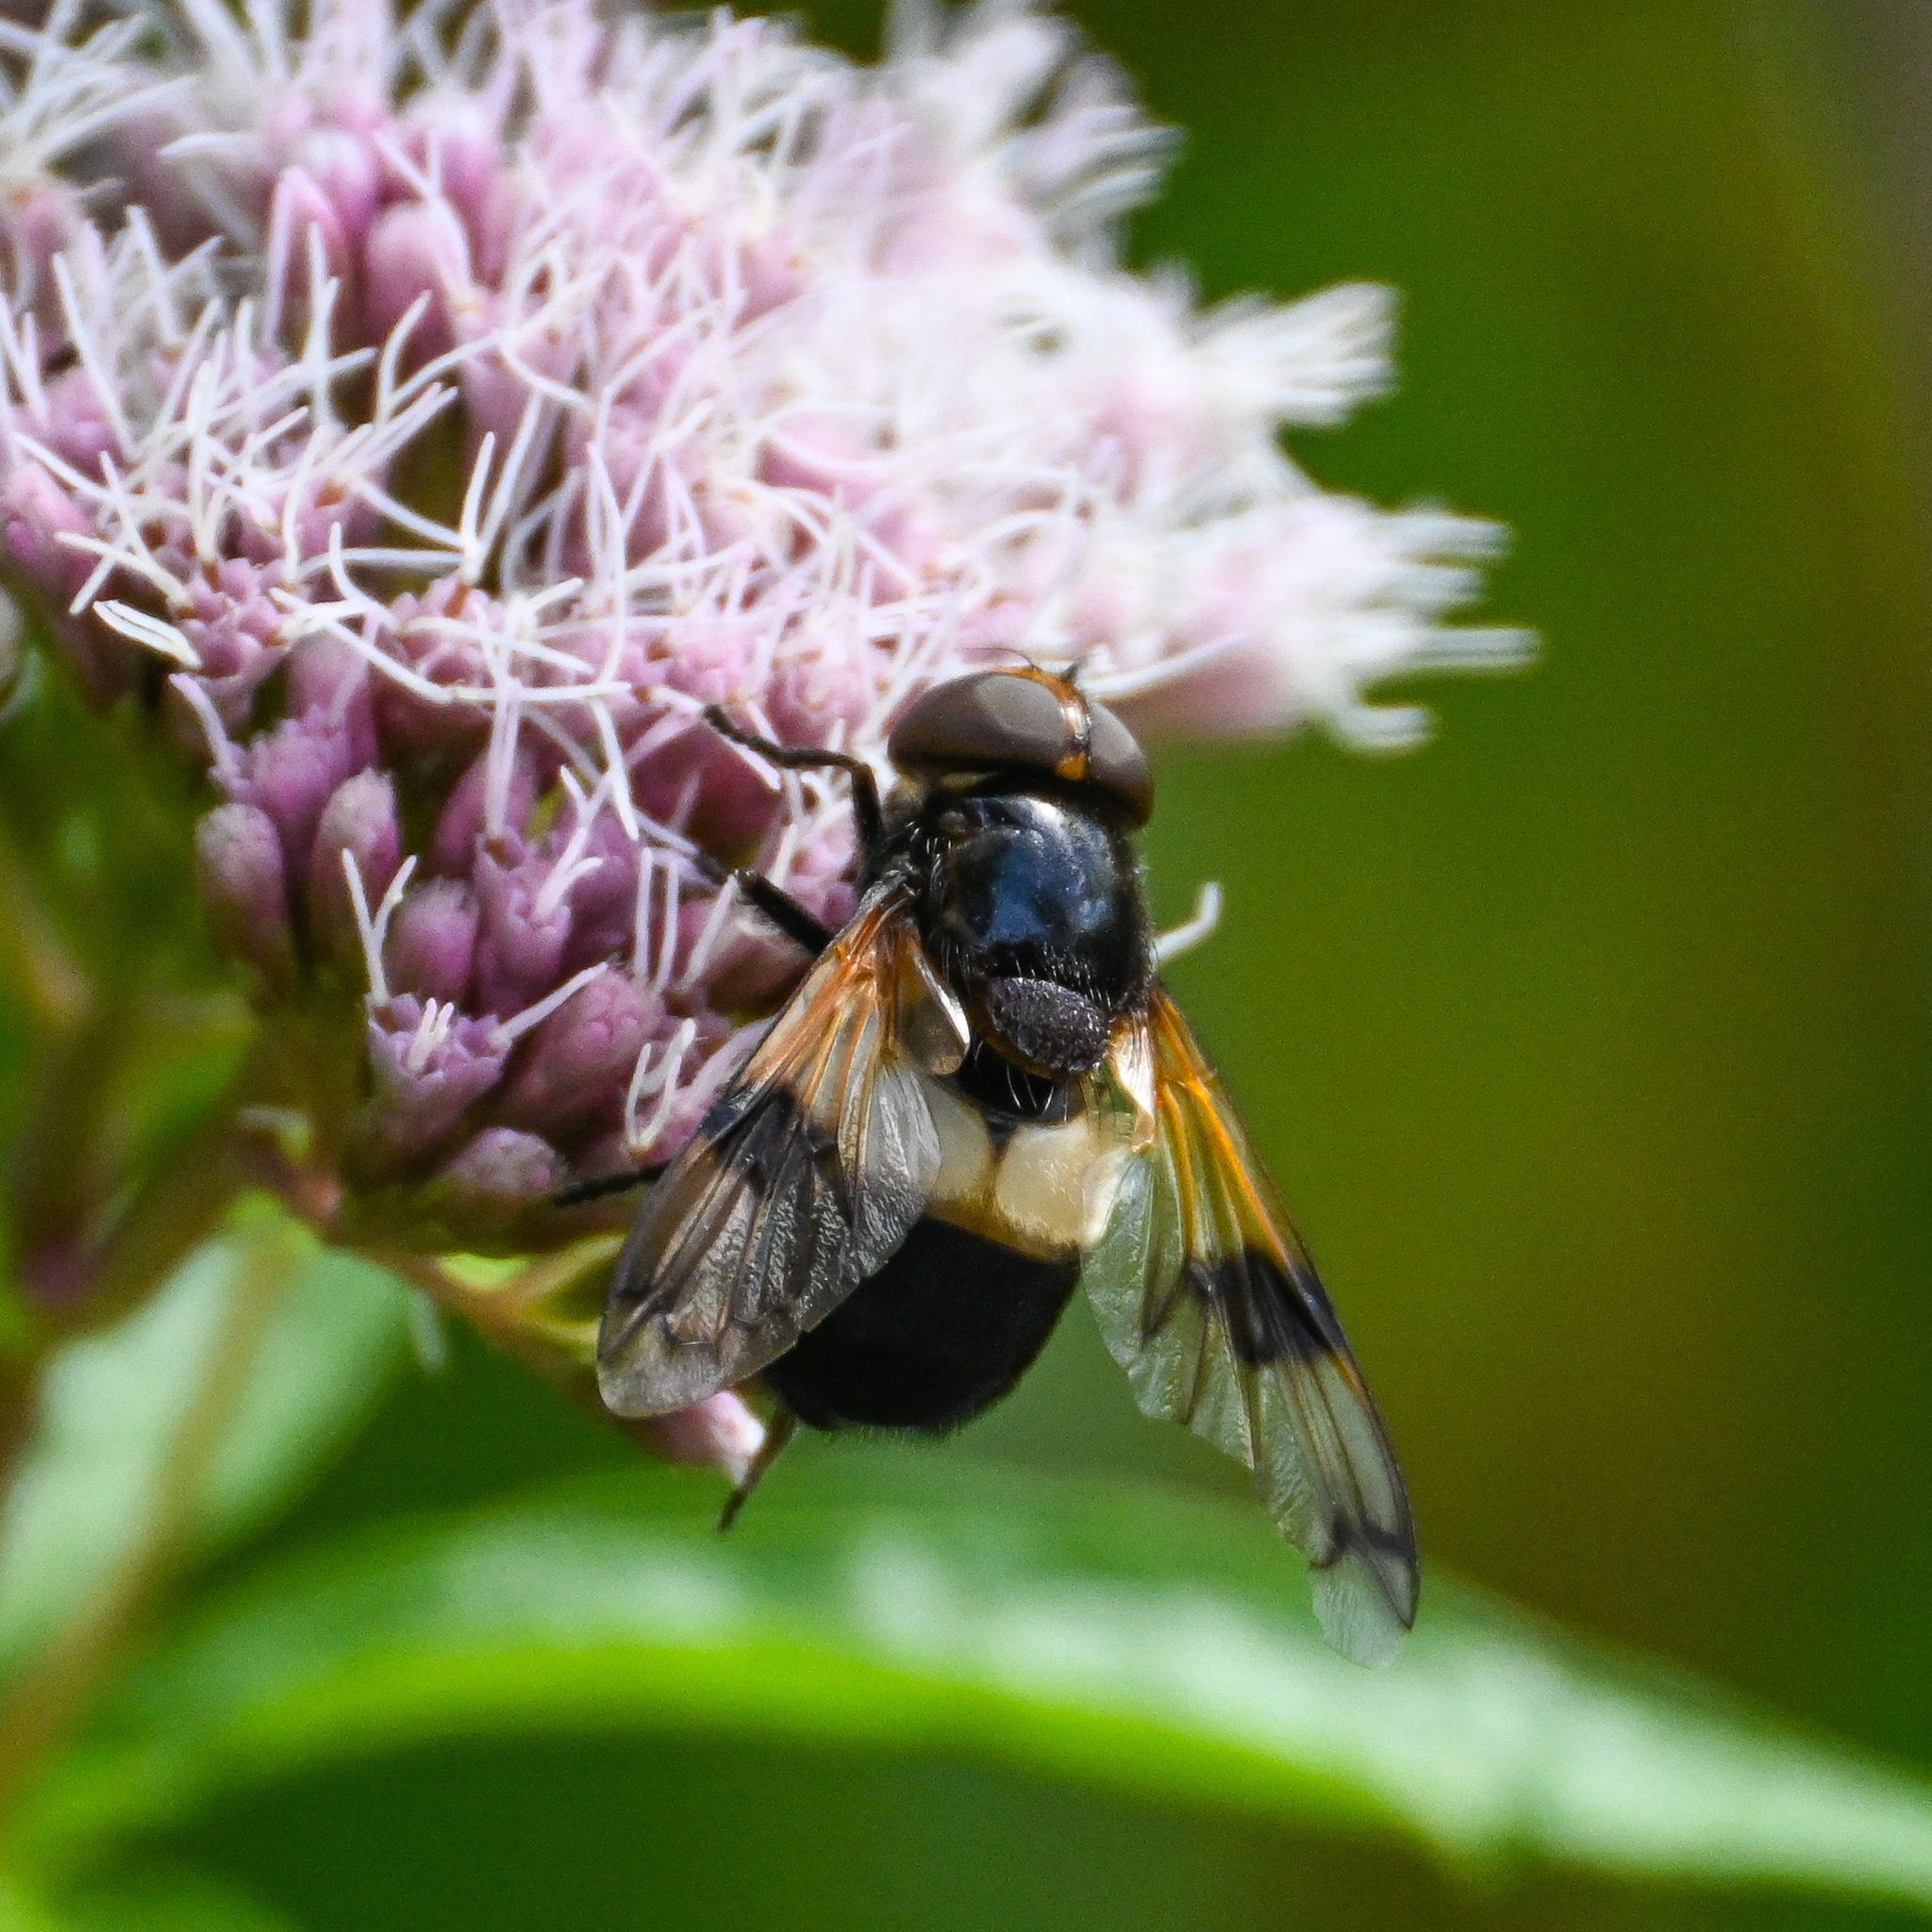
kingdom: Animalia
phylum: Arthropoda
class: Insecta
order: Diptera
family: Syrphidae
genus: Volucella
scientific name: Volucella pellucens
